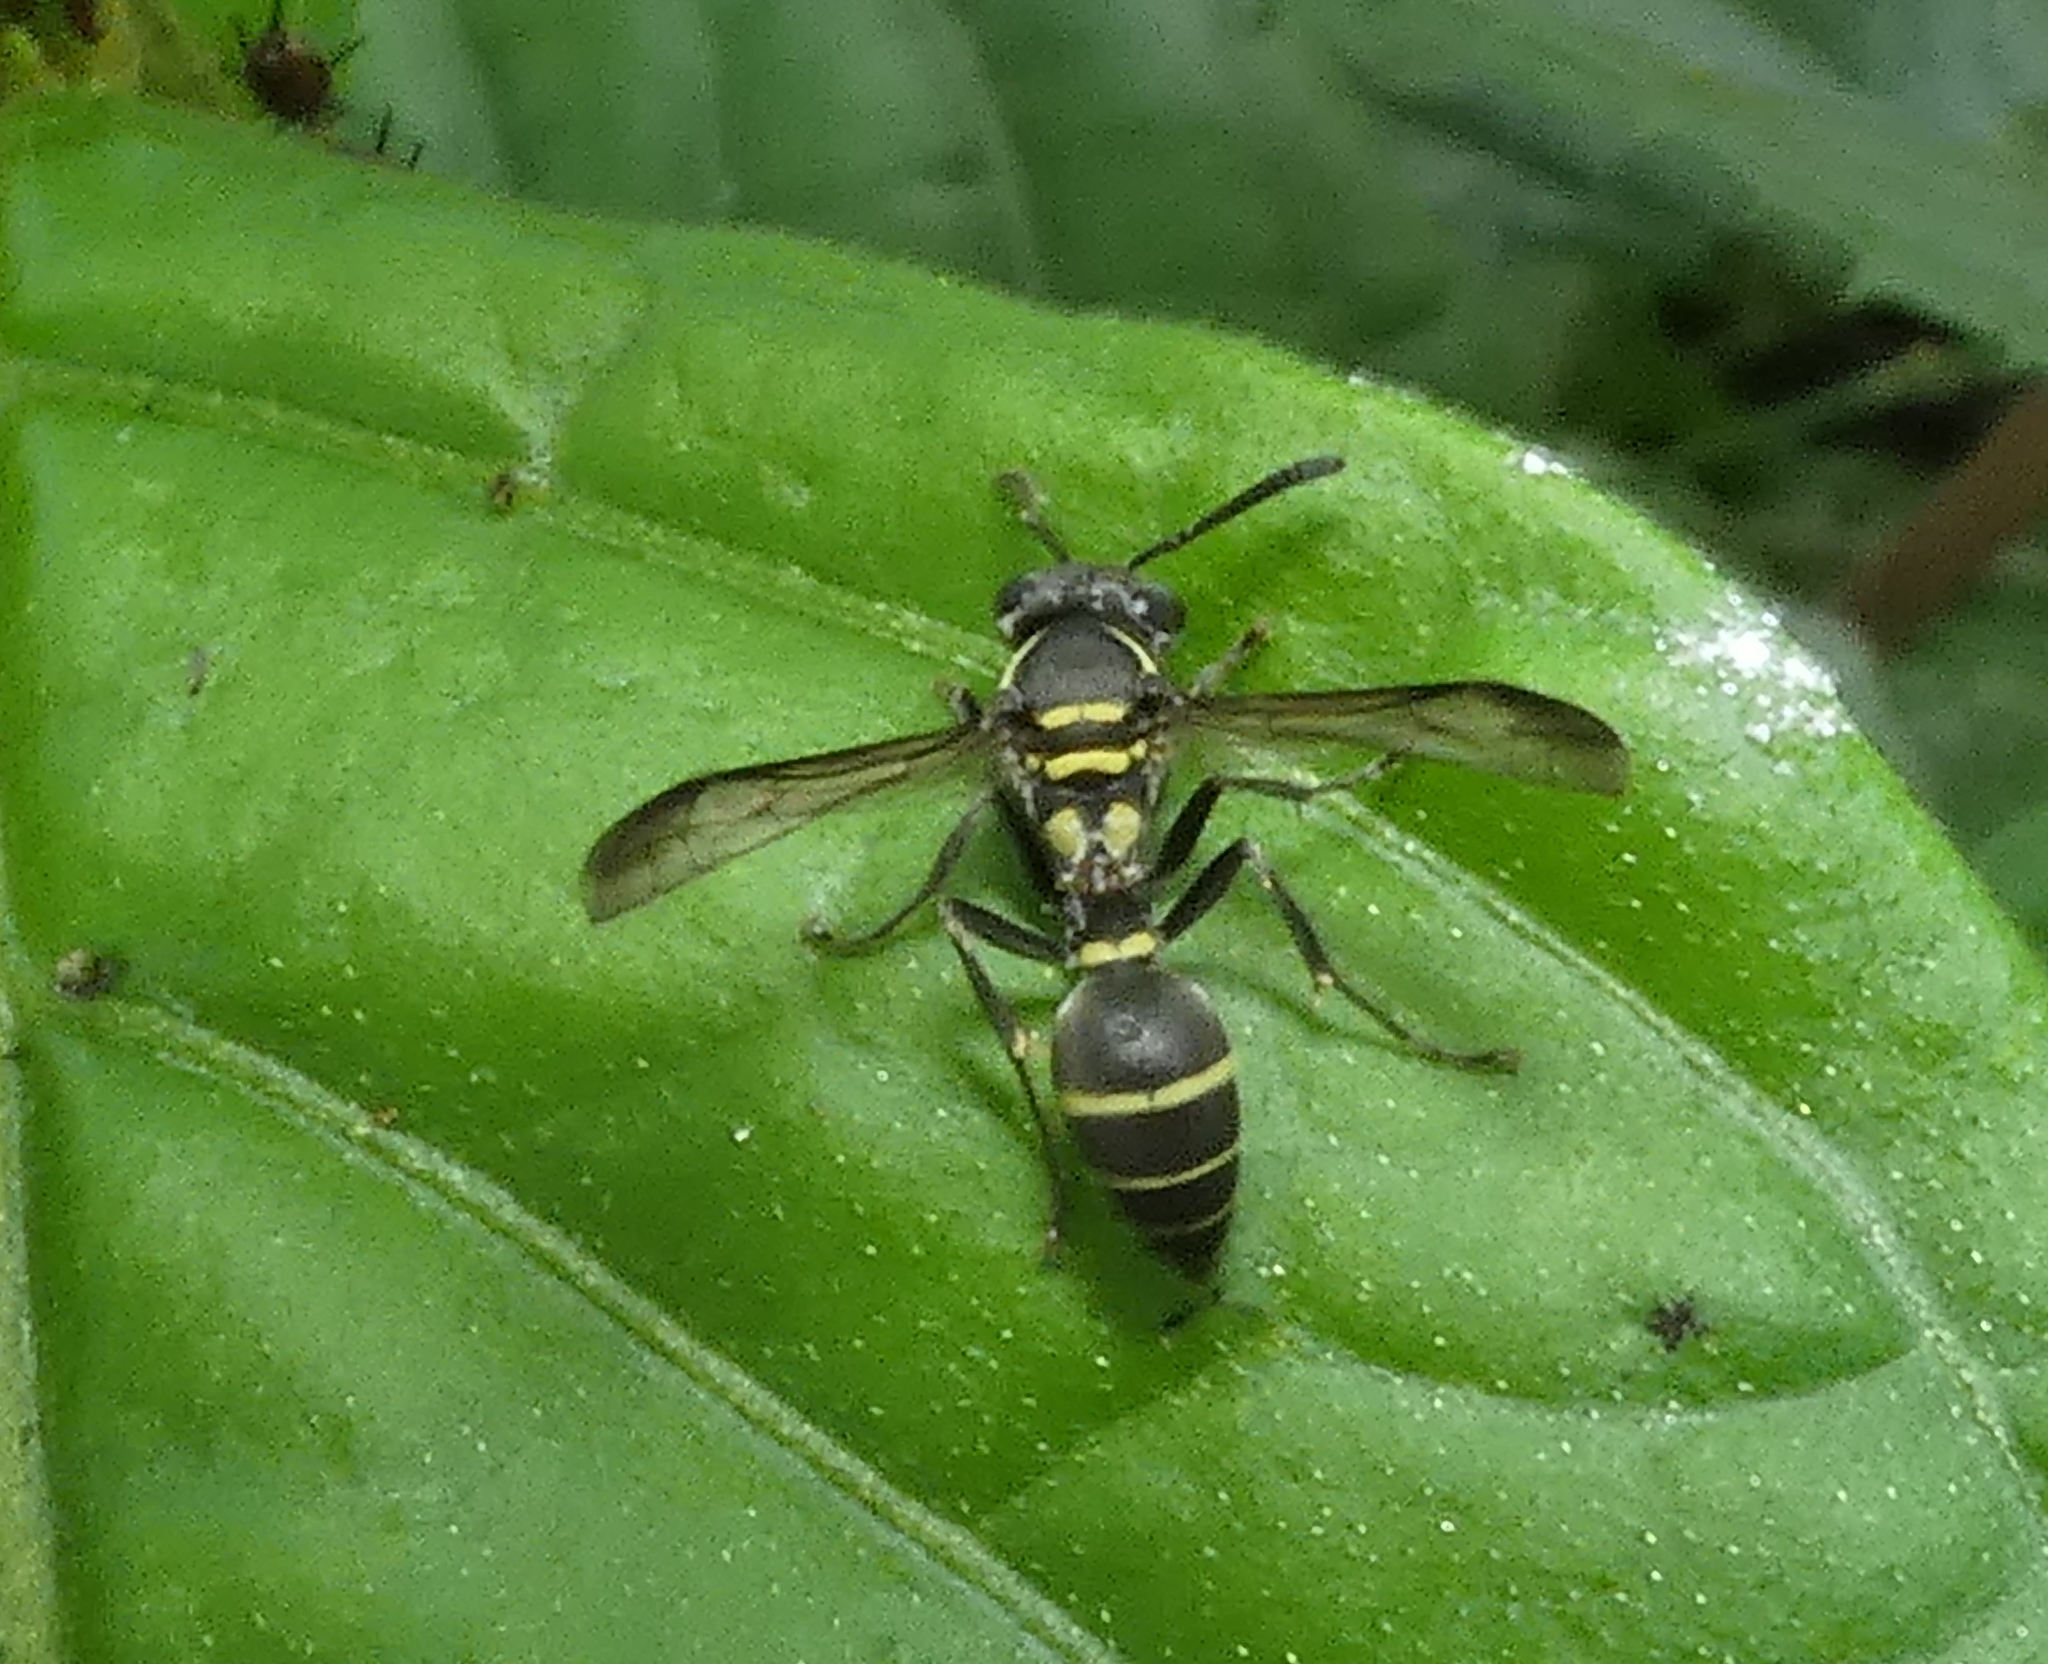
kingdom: Animalia
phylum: Arthropoda
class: Insecta
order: Hymenoptera
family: Eumenidae
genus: Polybia
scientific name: Polybia occidentalis
